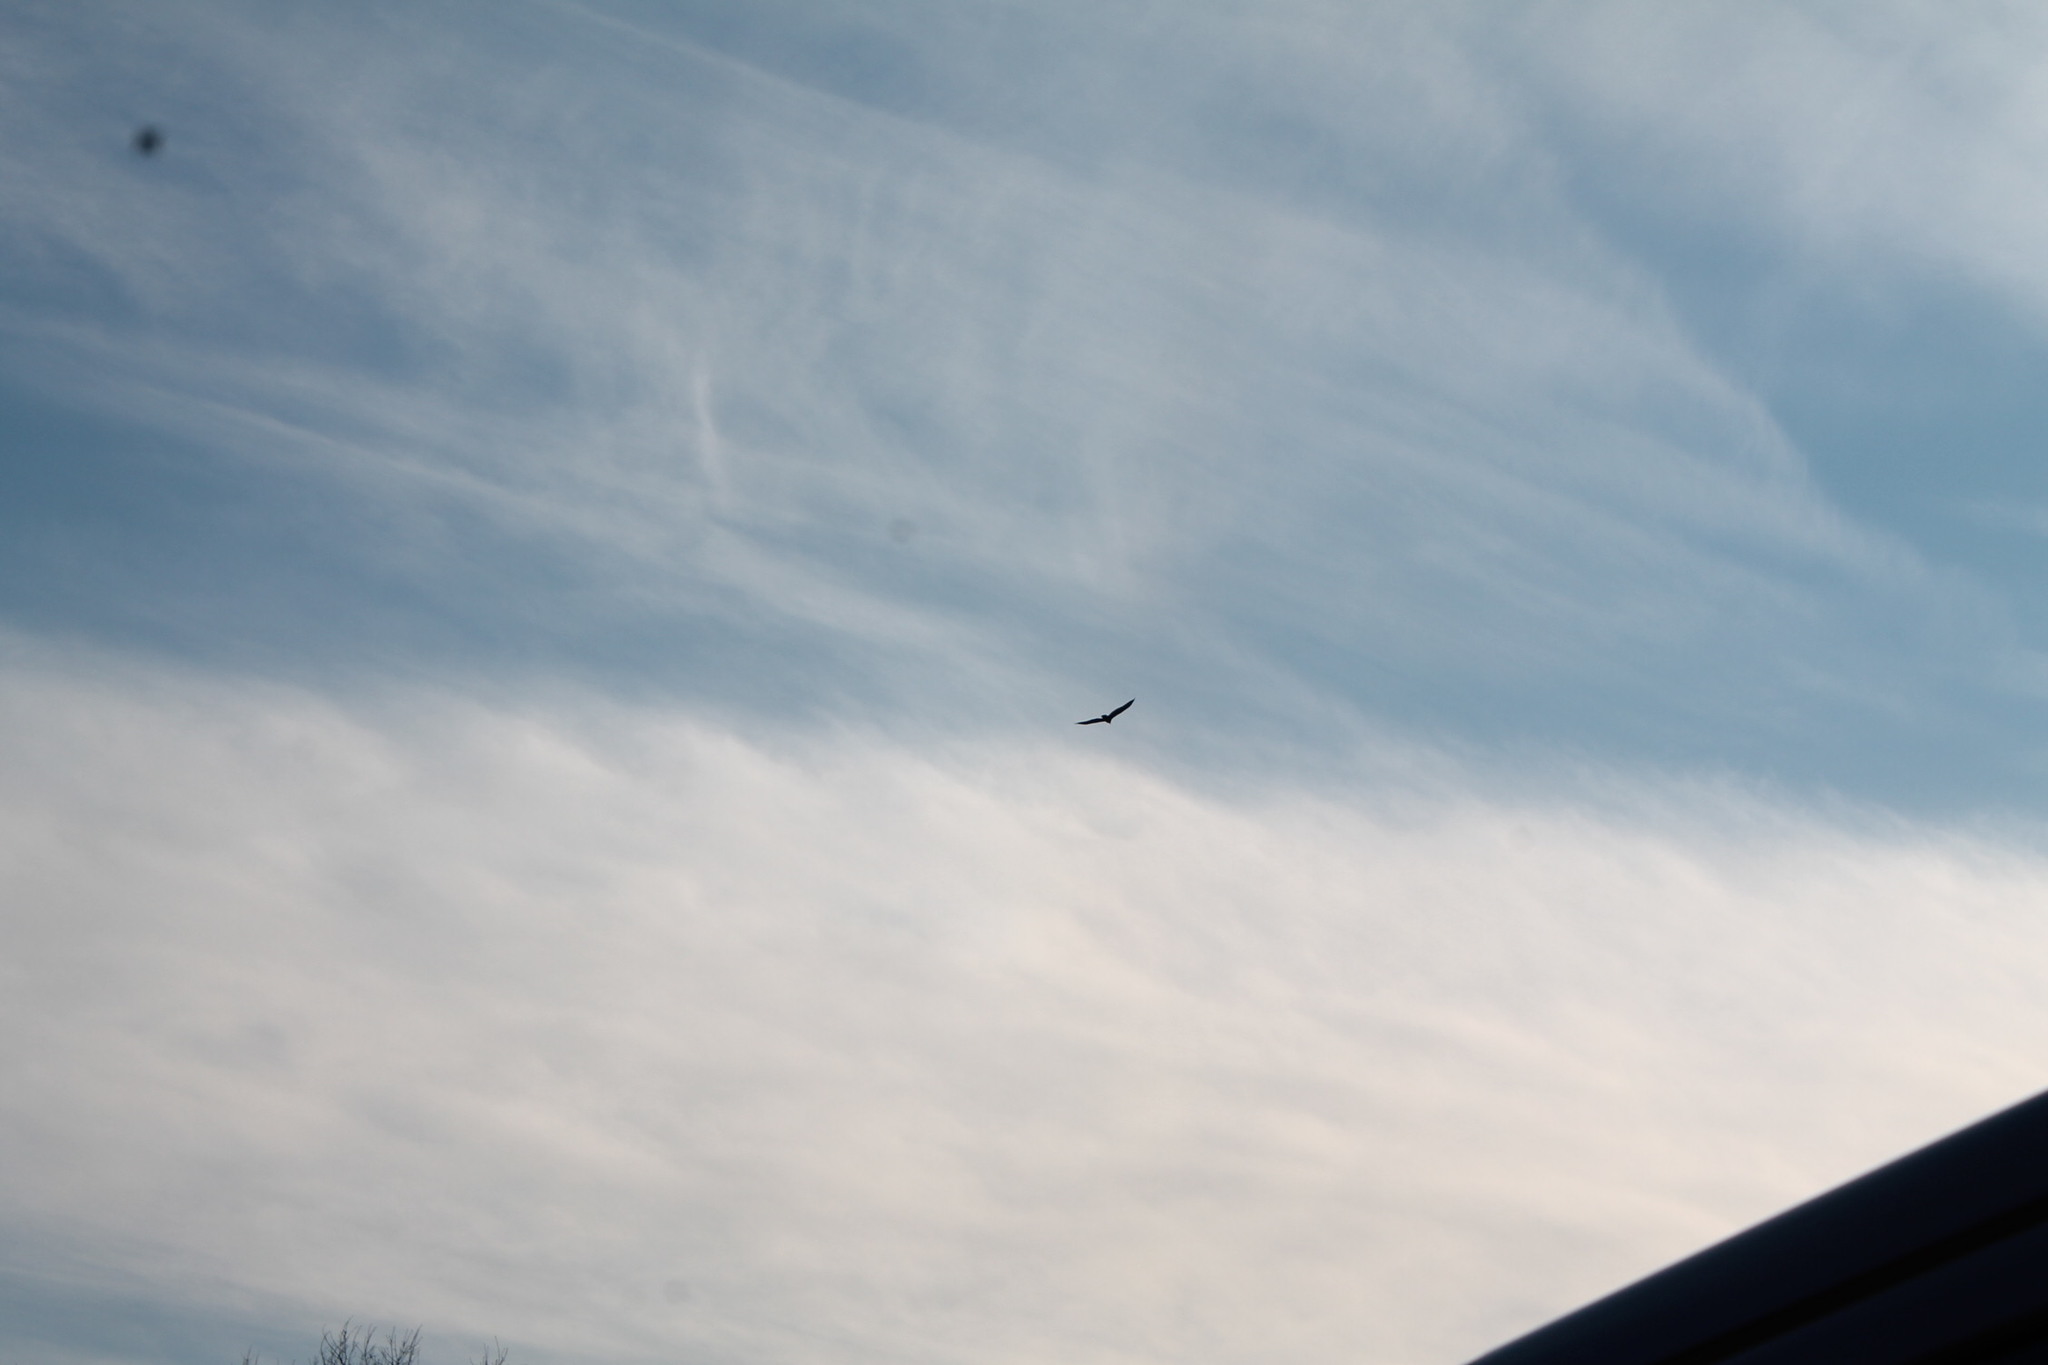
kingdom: Animalia
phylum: Chordata
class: Aves
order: Accipitriformes
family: Cathartidae
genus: Cathartes
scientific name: Cathartes aura
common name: Turkey vulture
